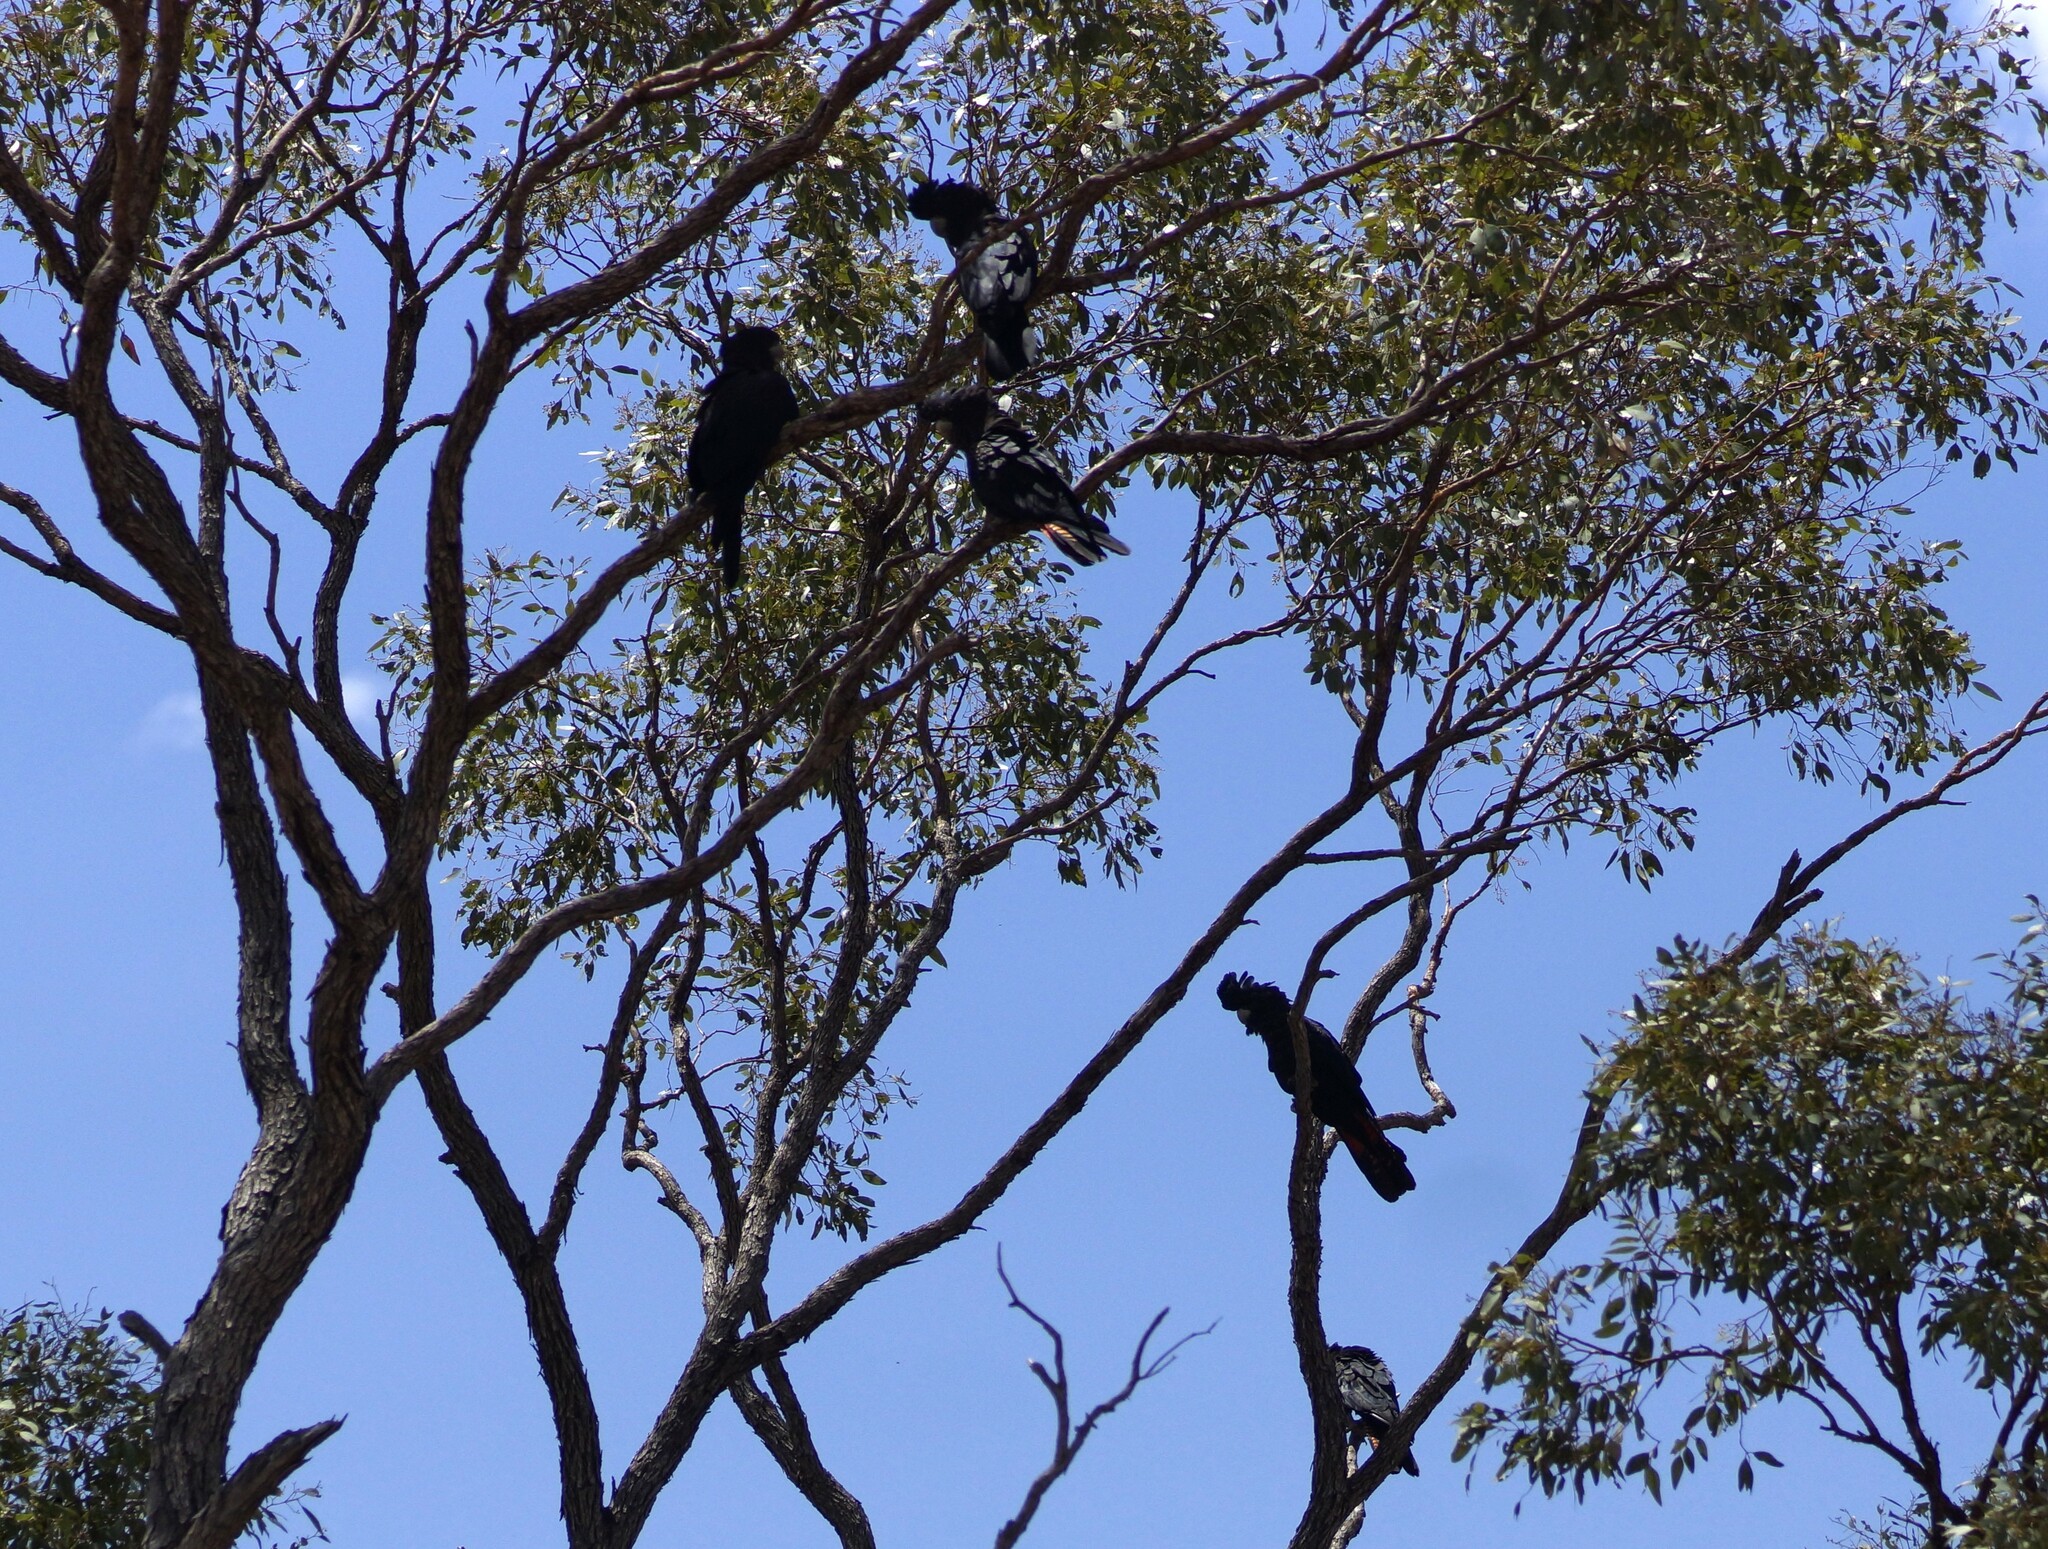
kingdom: Animalia
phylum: Chordata
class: Aves
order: Psittaciformes
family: Psittacidae
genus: Calyptorhynchus
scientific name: Calyptorhynchus banksii
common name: Red-tailed black cockatoo
